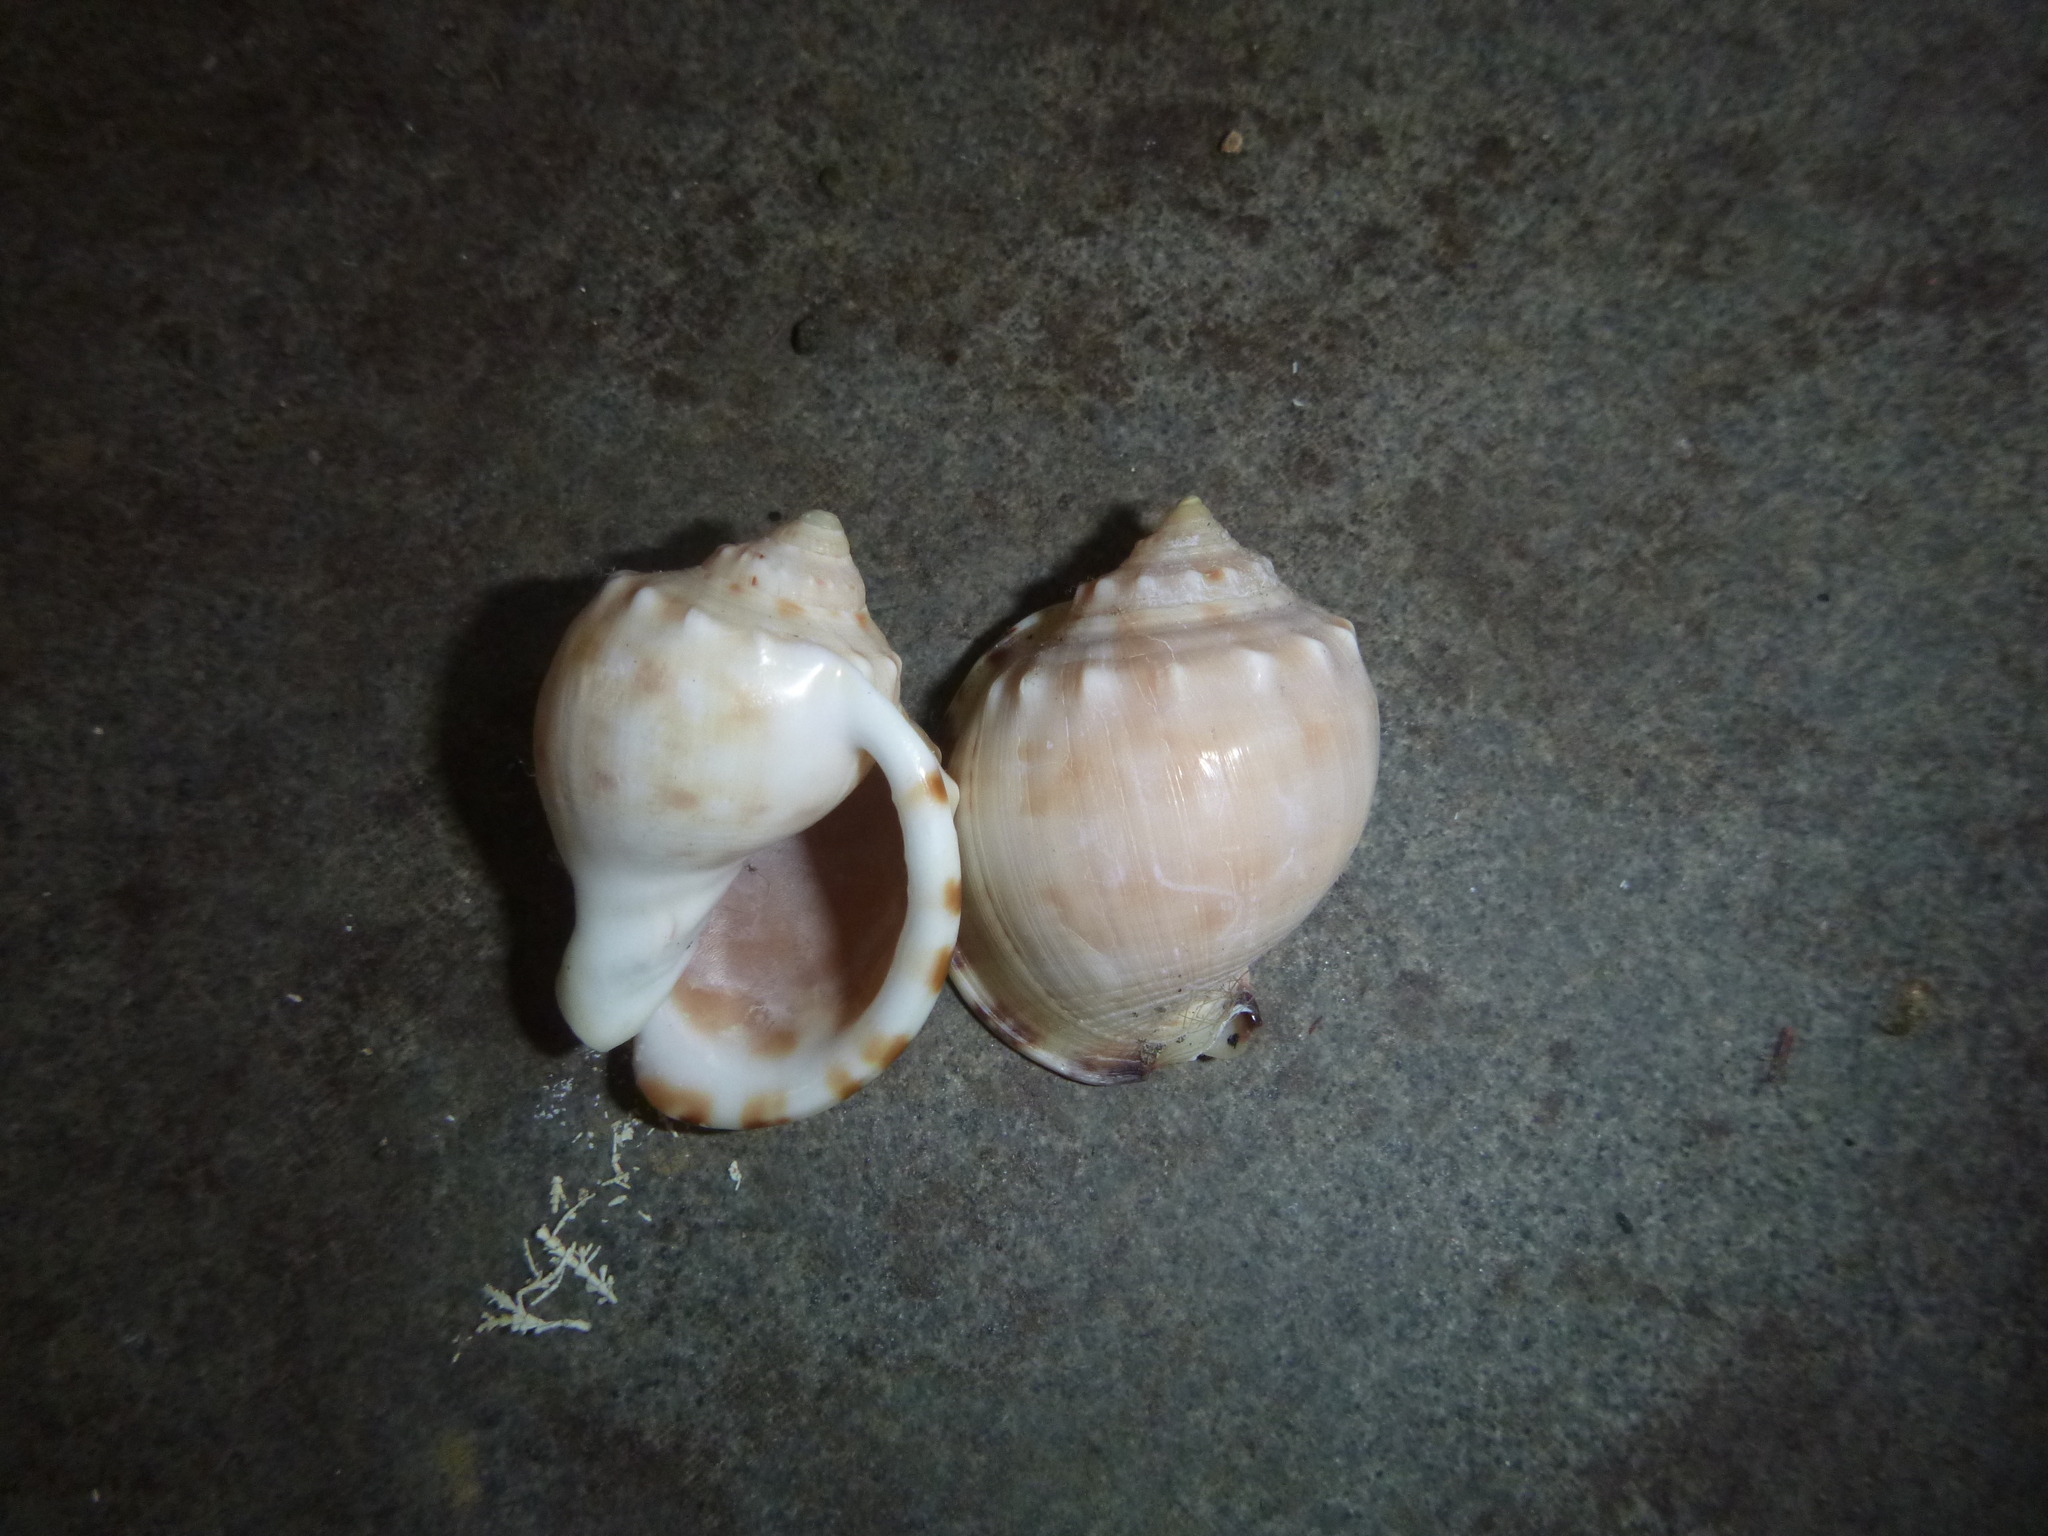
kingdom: Animalia
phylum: Mollusca
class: Gastropoda
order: Littorinimorpha
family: Cassidae
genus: Semicassis
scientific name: Semicassis pyrum
